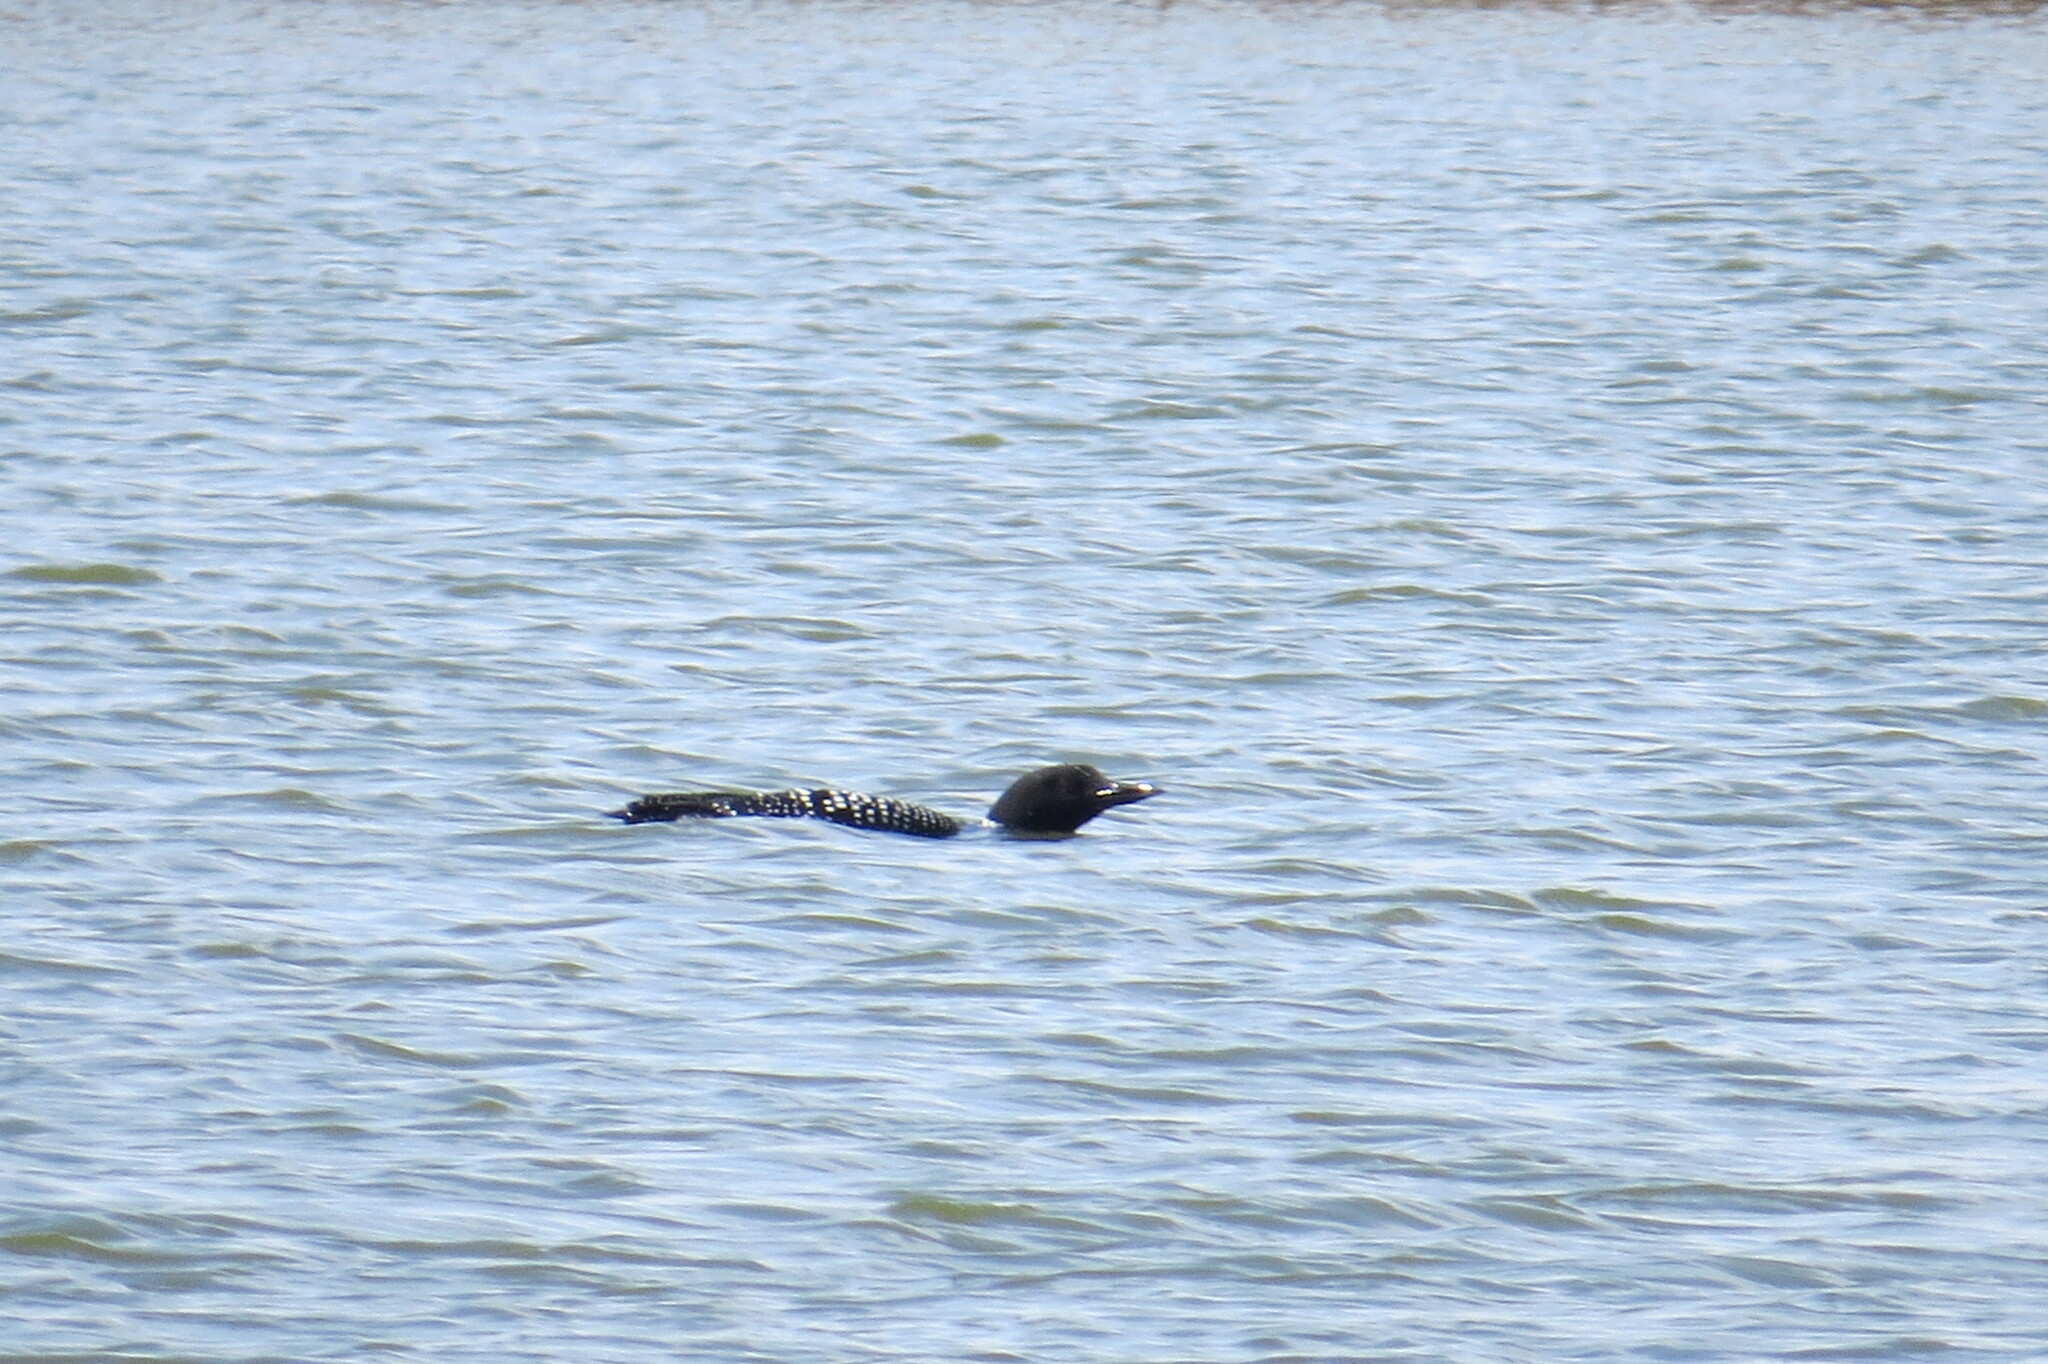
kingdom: Animalia
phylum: Chordata
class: Aves
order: Gaviiformes
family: Gaviidae
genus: Gavia
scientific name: Gavia immer
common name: Common loon
